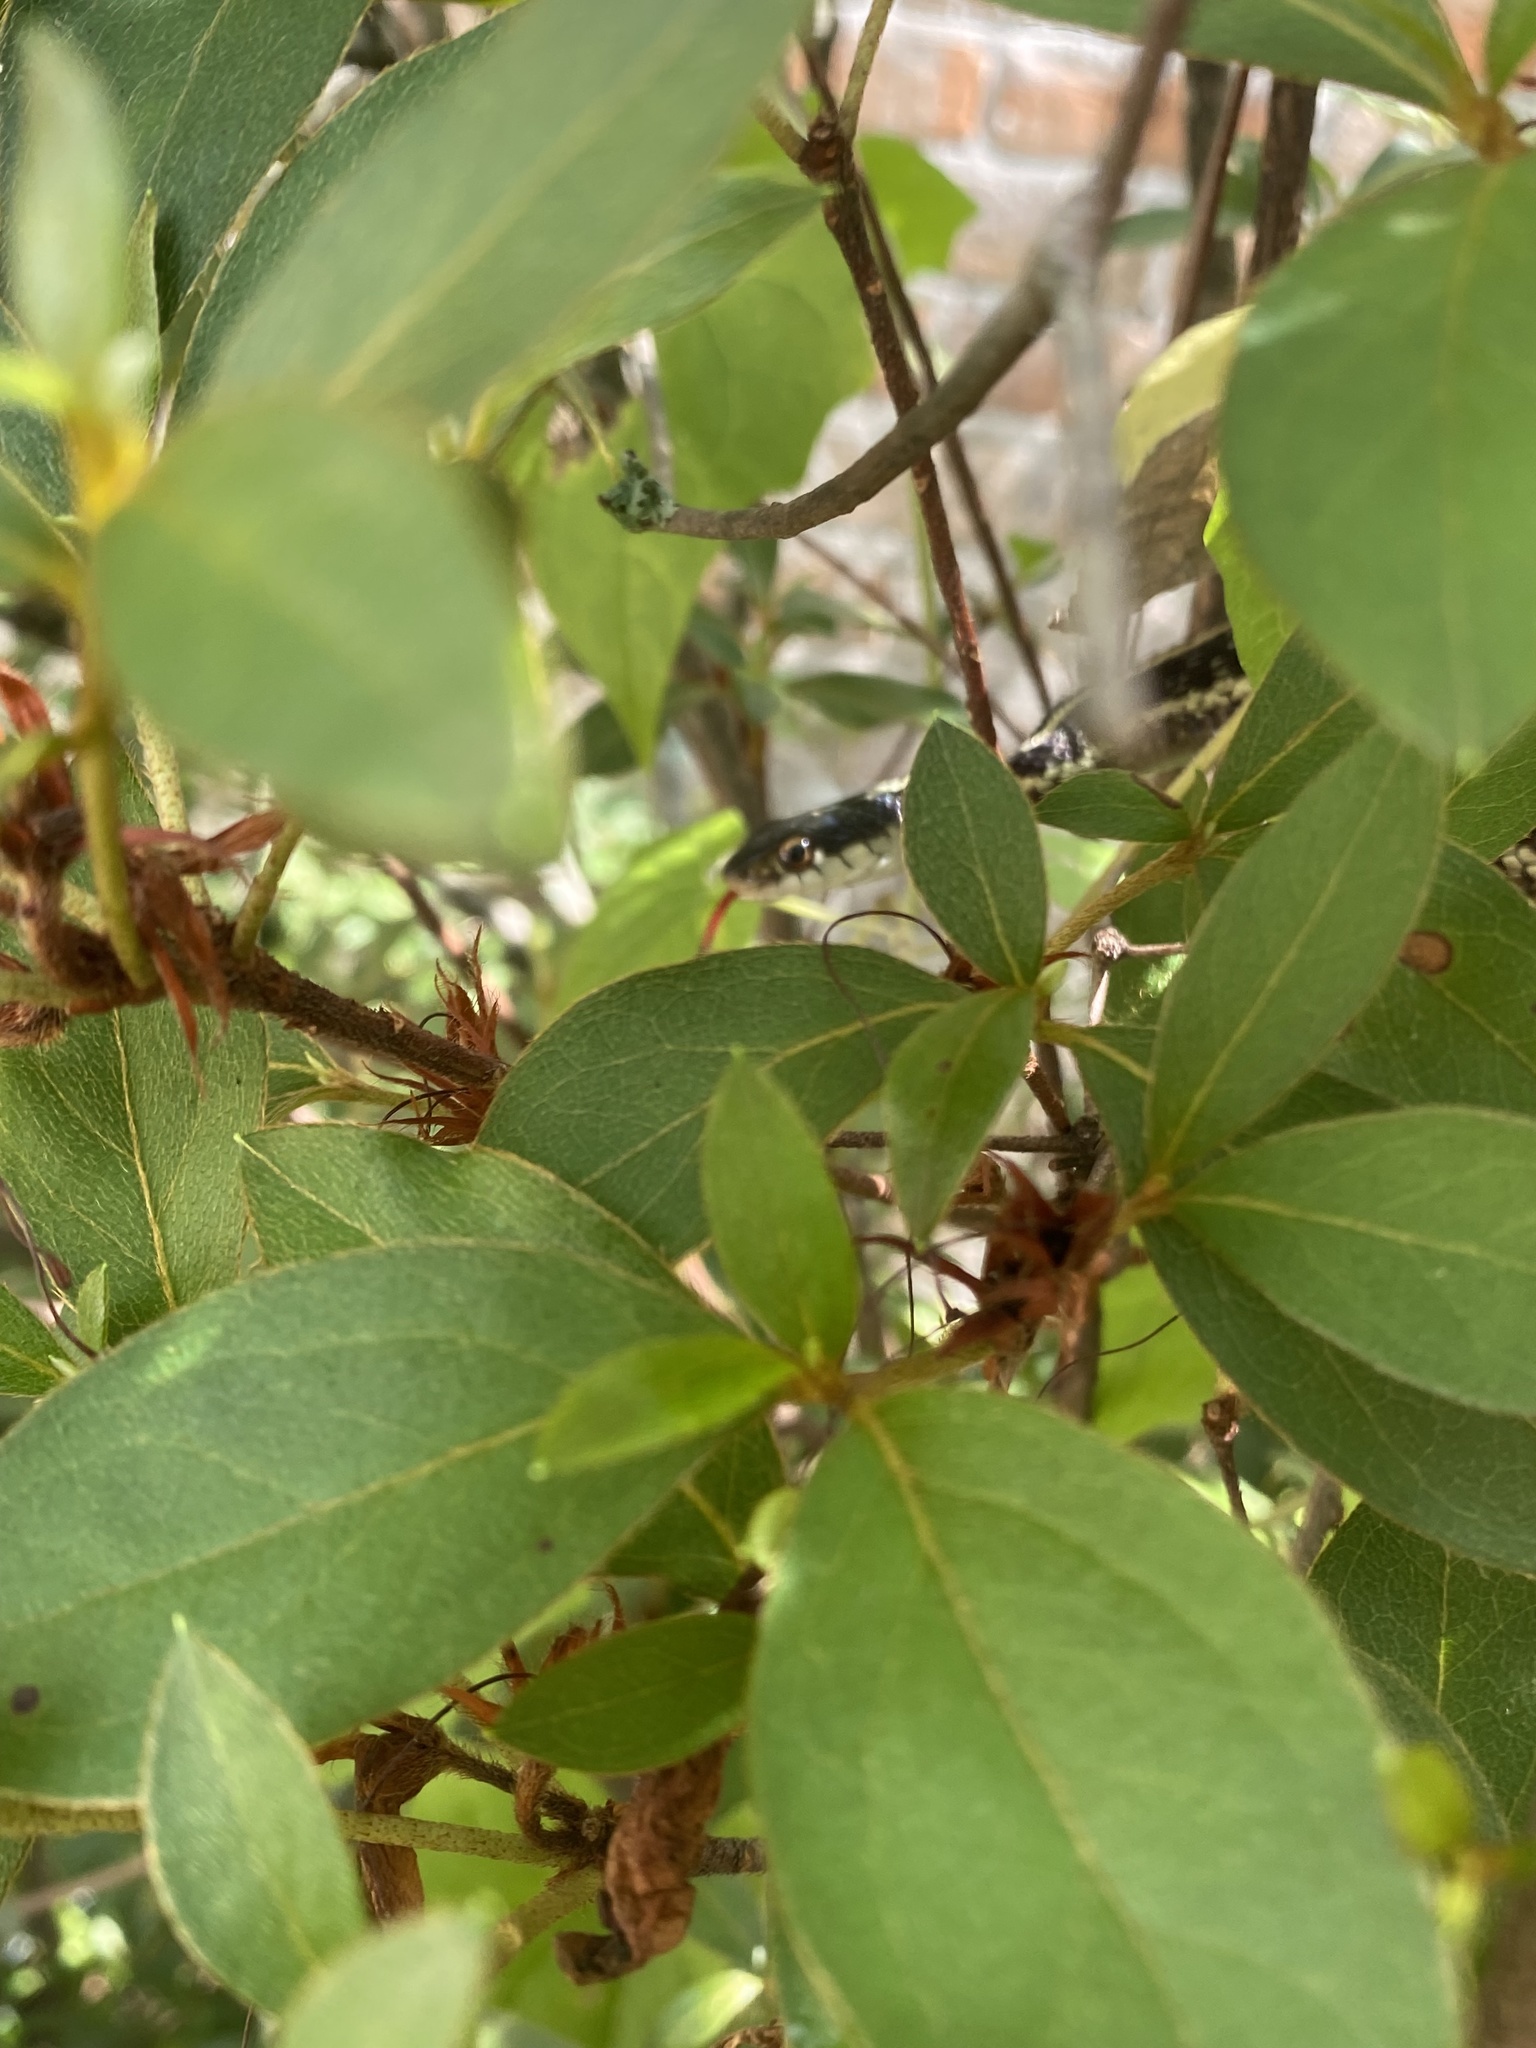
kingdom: Animalia
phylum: Chordata
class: Squamata
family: Colubridae
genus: Thamnophis
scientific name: Thamnophis sirtalis
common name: Common garter snake
